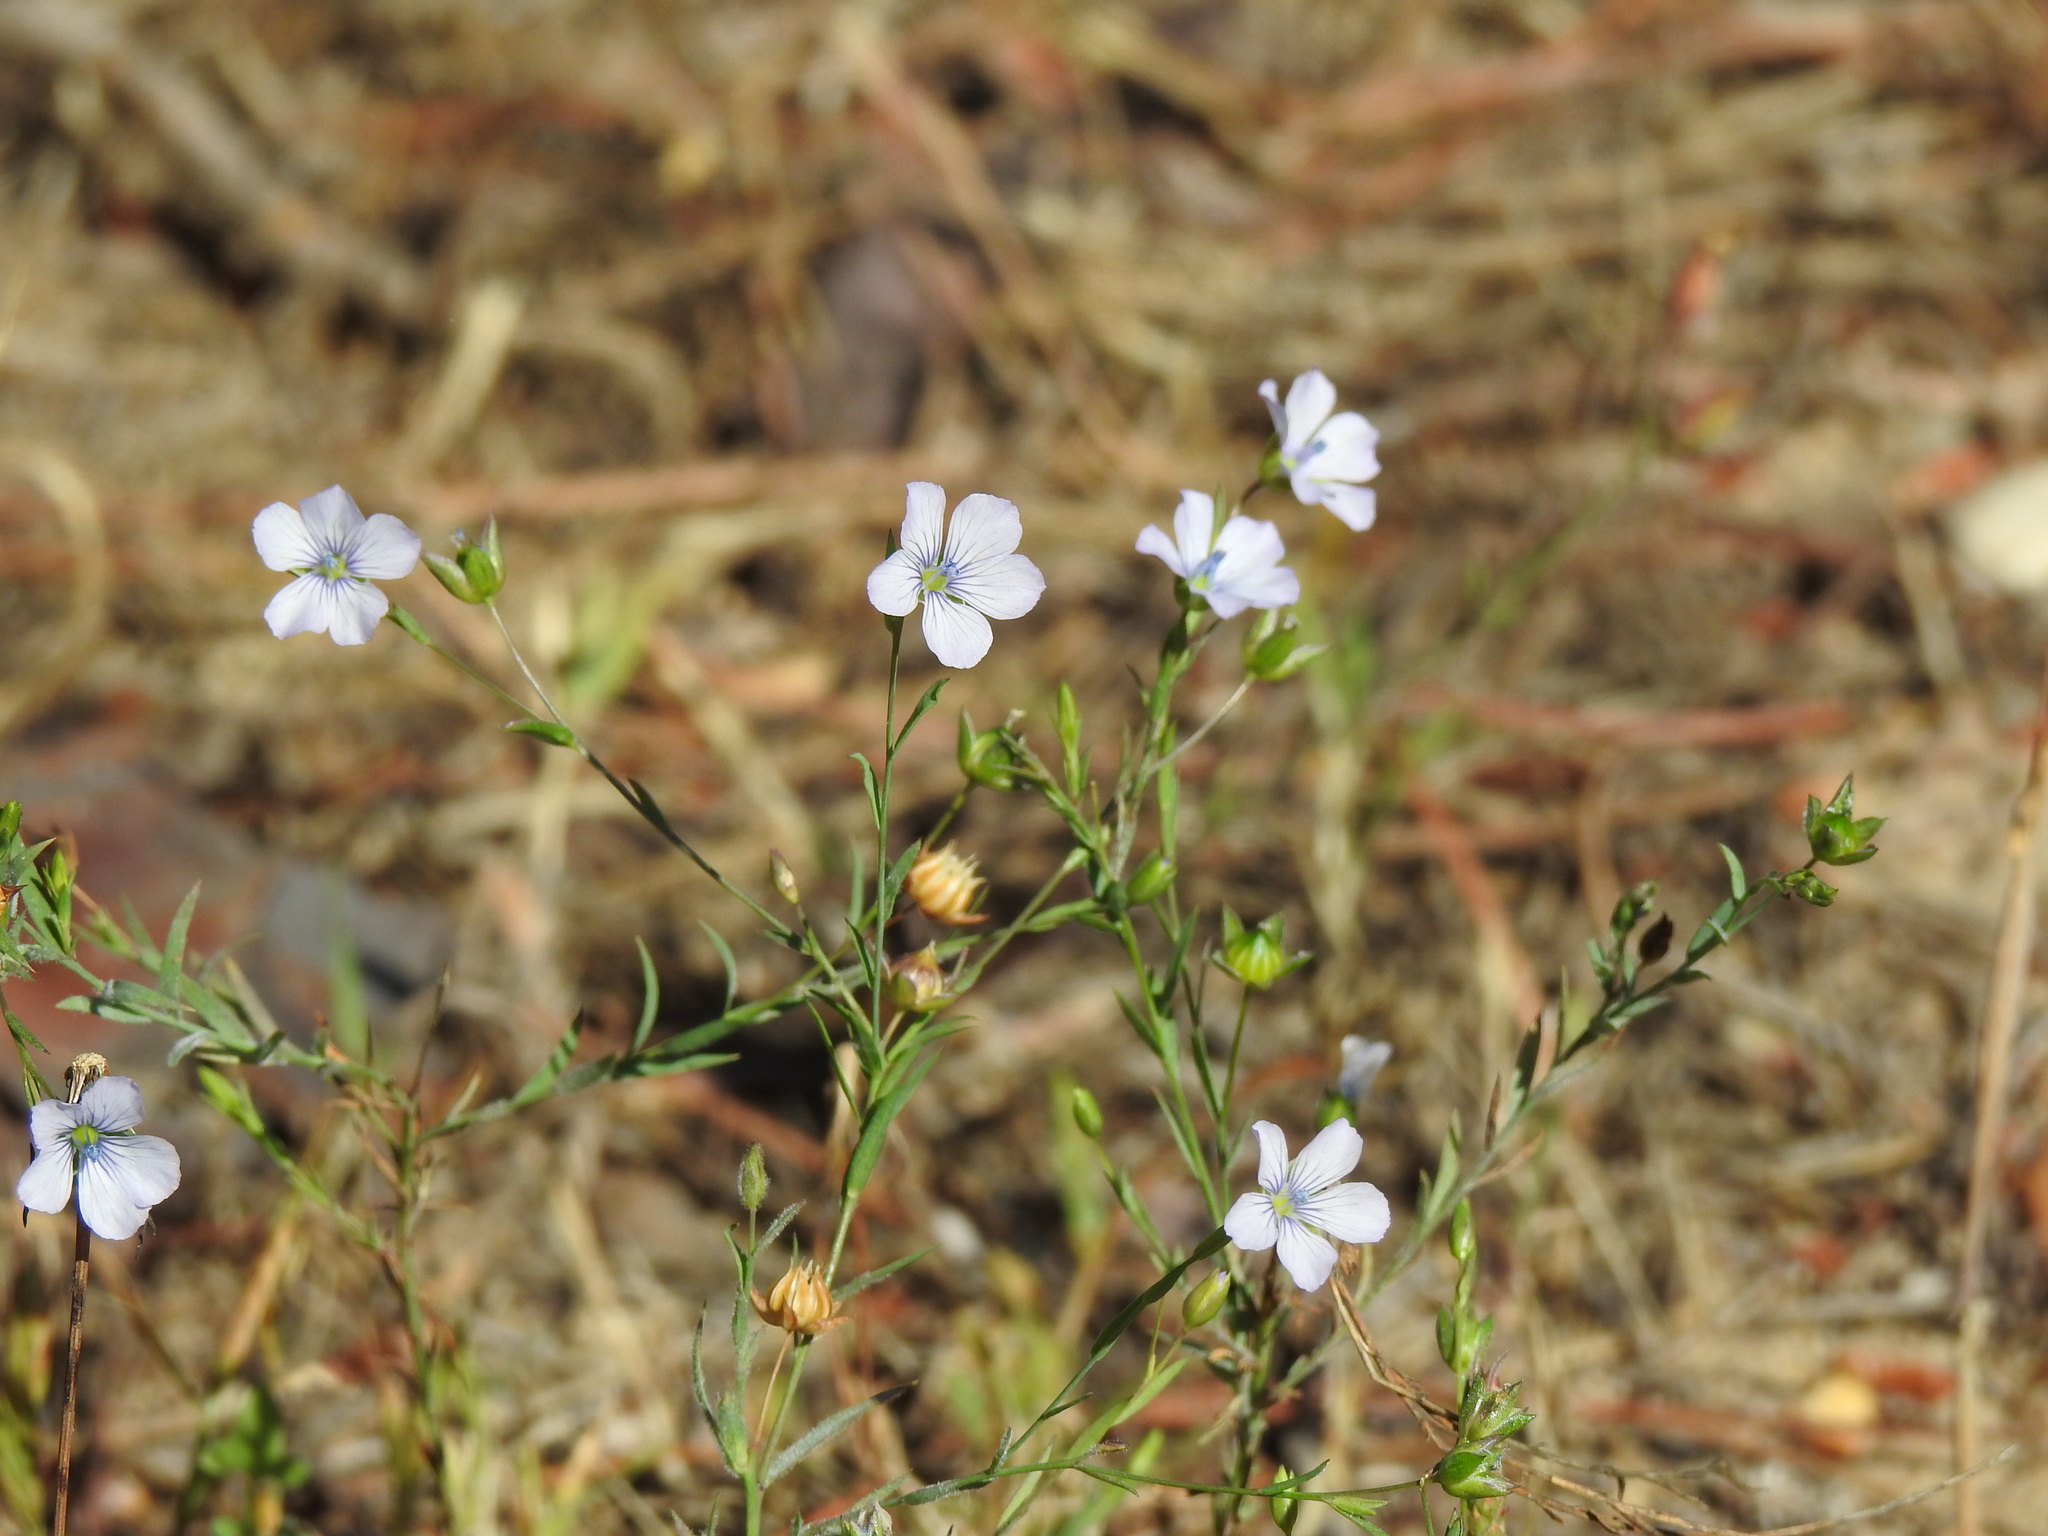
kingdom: Plantae
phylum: Tracheophyta
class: Magnoliopsida
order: Malpighiales
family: Linaceae
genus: Linum
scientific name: Linum bienne
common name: Pale flax
